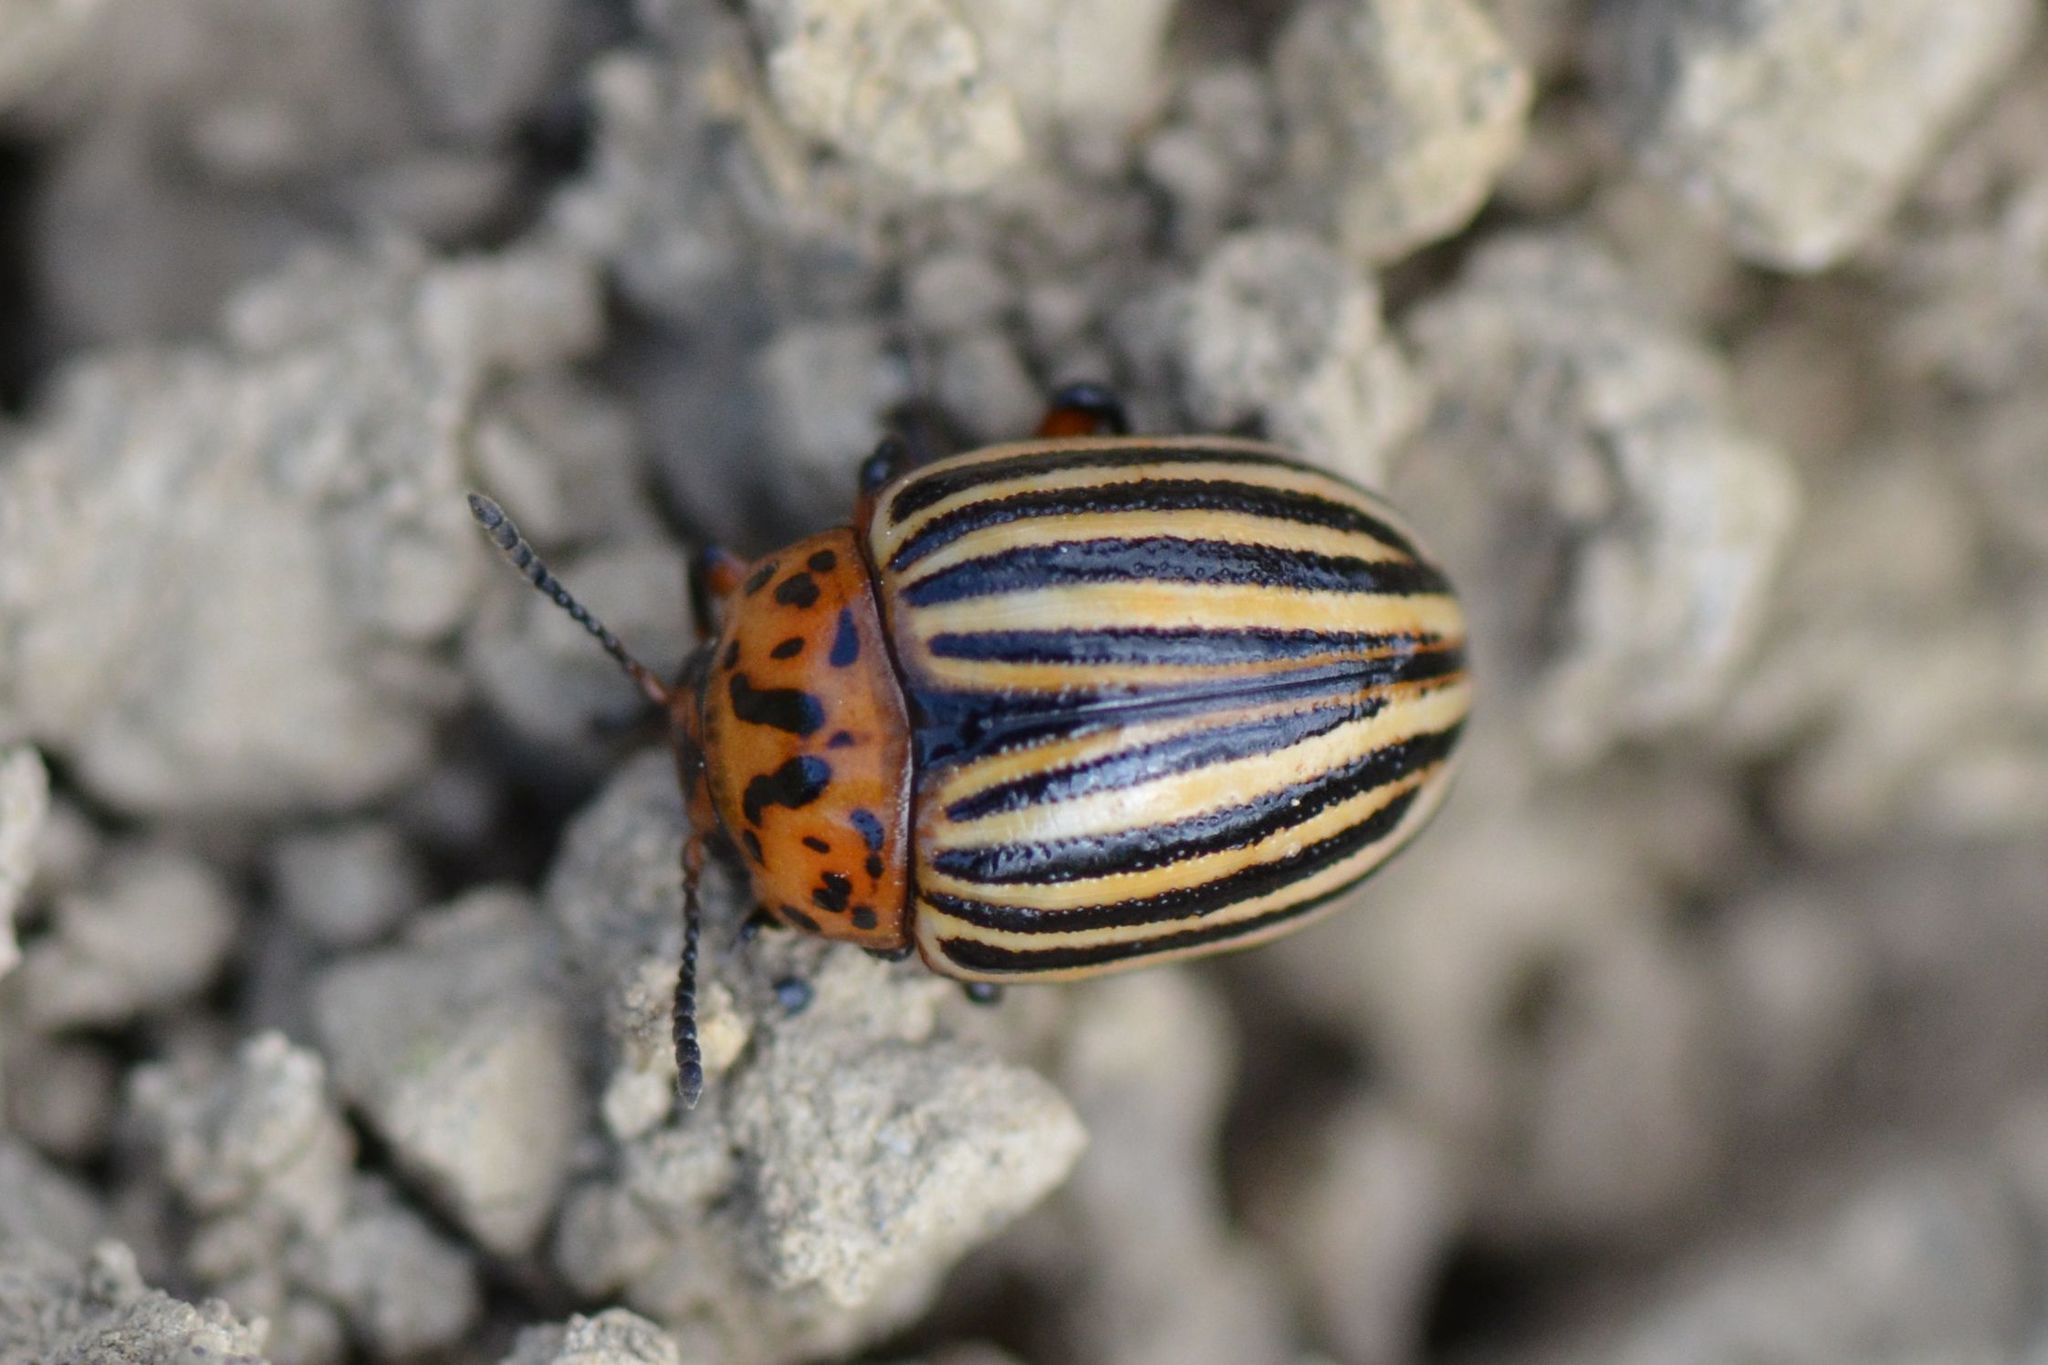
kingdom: Animalia
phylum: Arthropoda
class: Insecta
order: Coleoptera
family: Chrysomelidae
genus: Leptinotarsa
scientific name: Leptinotarsa decemlineata
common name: Colorado potato beetle
